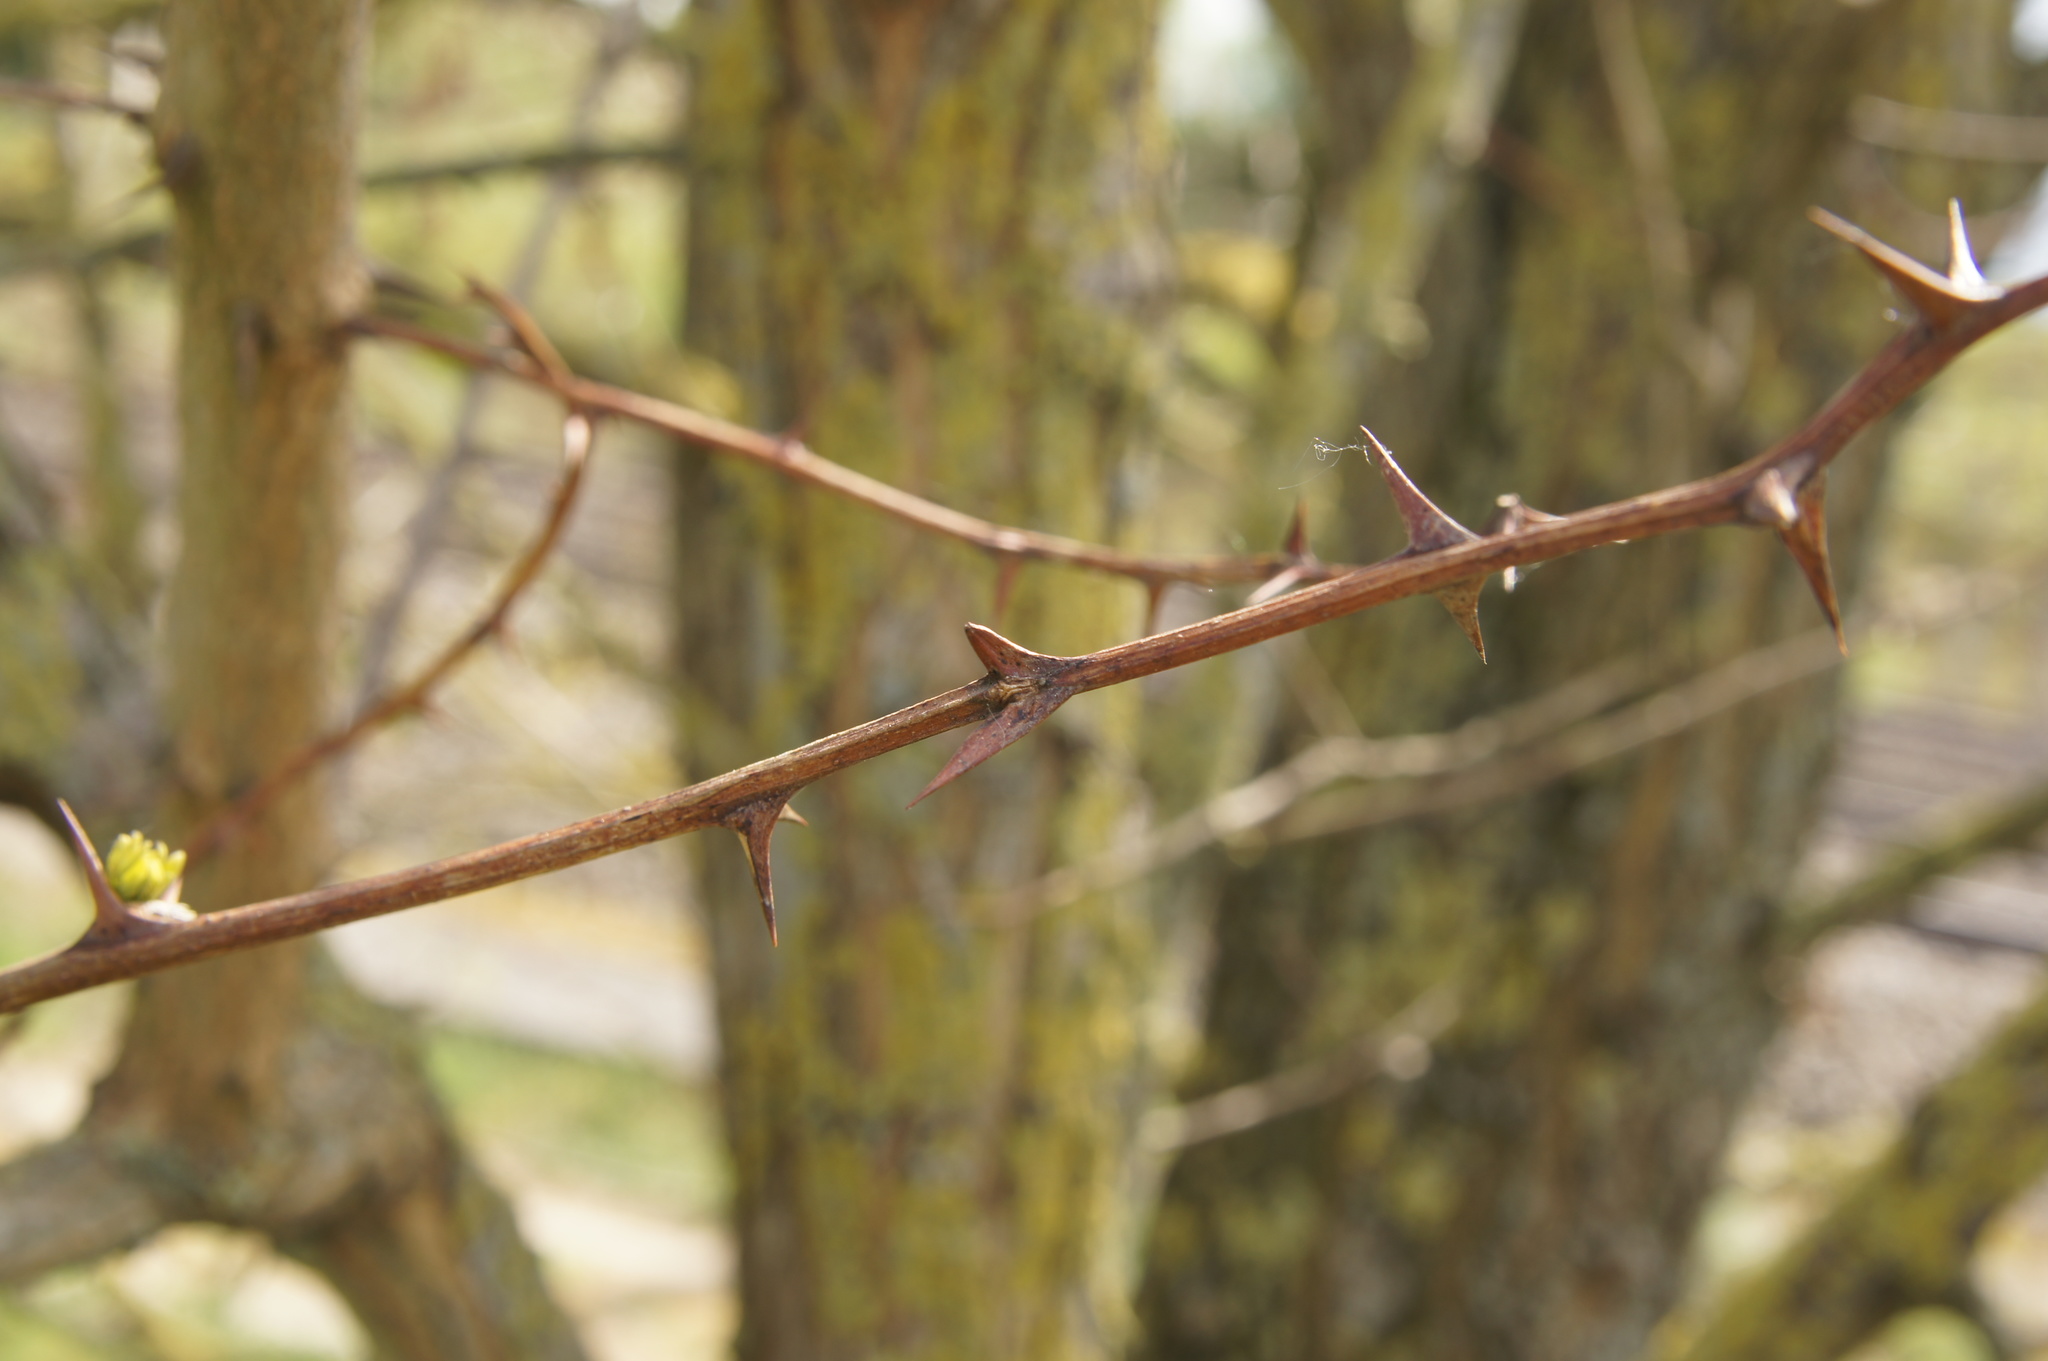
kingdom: Plantae
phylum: Tracheophyta
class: Magnoliopsida
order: Fabales
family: Fabaceae
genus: Robinia
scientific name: Robinia pseudoacacia
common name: Black locust
